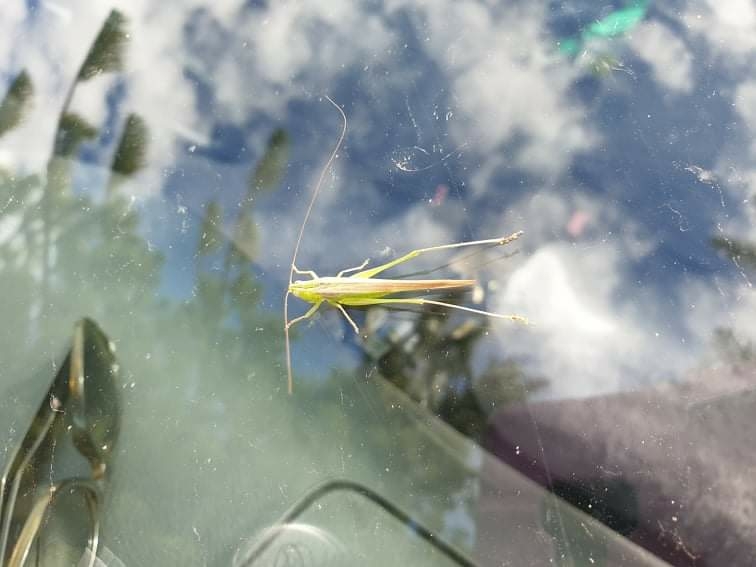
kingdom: Animalia
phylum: Arthropoda
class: Insecta
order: Orthoptera
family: Tettigoniidae
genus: Conocephalus
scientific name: Conocephalus upoluensis
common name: Upolu meadow katydid
